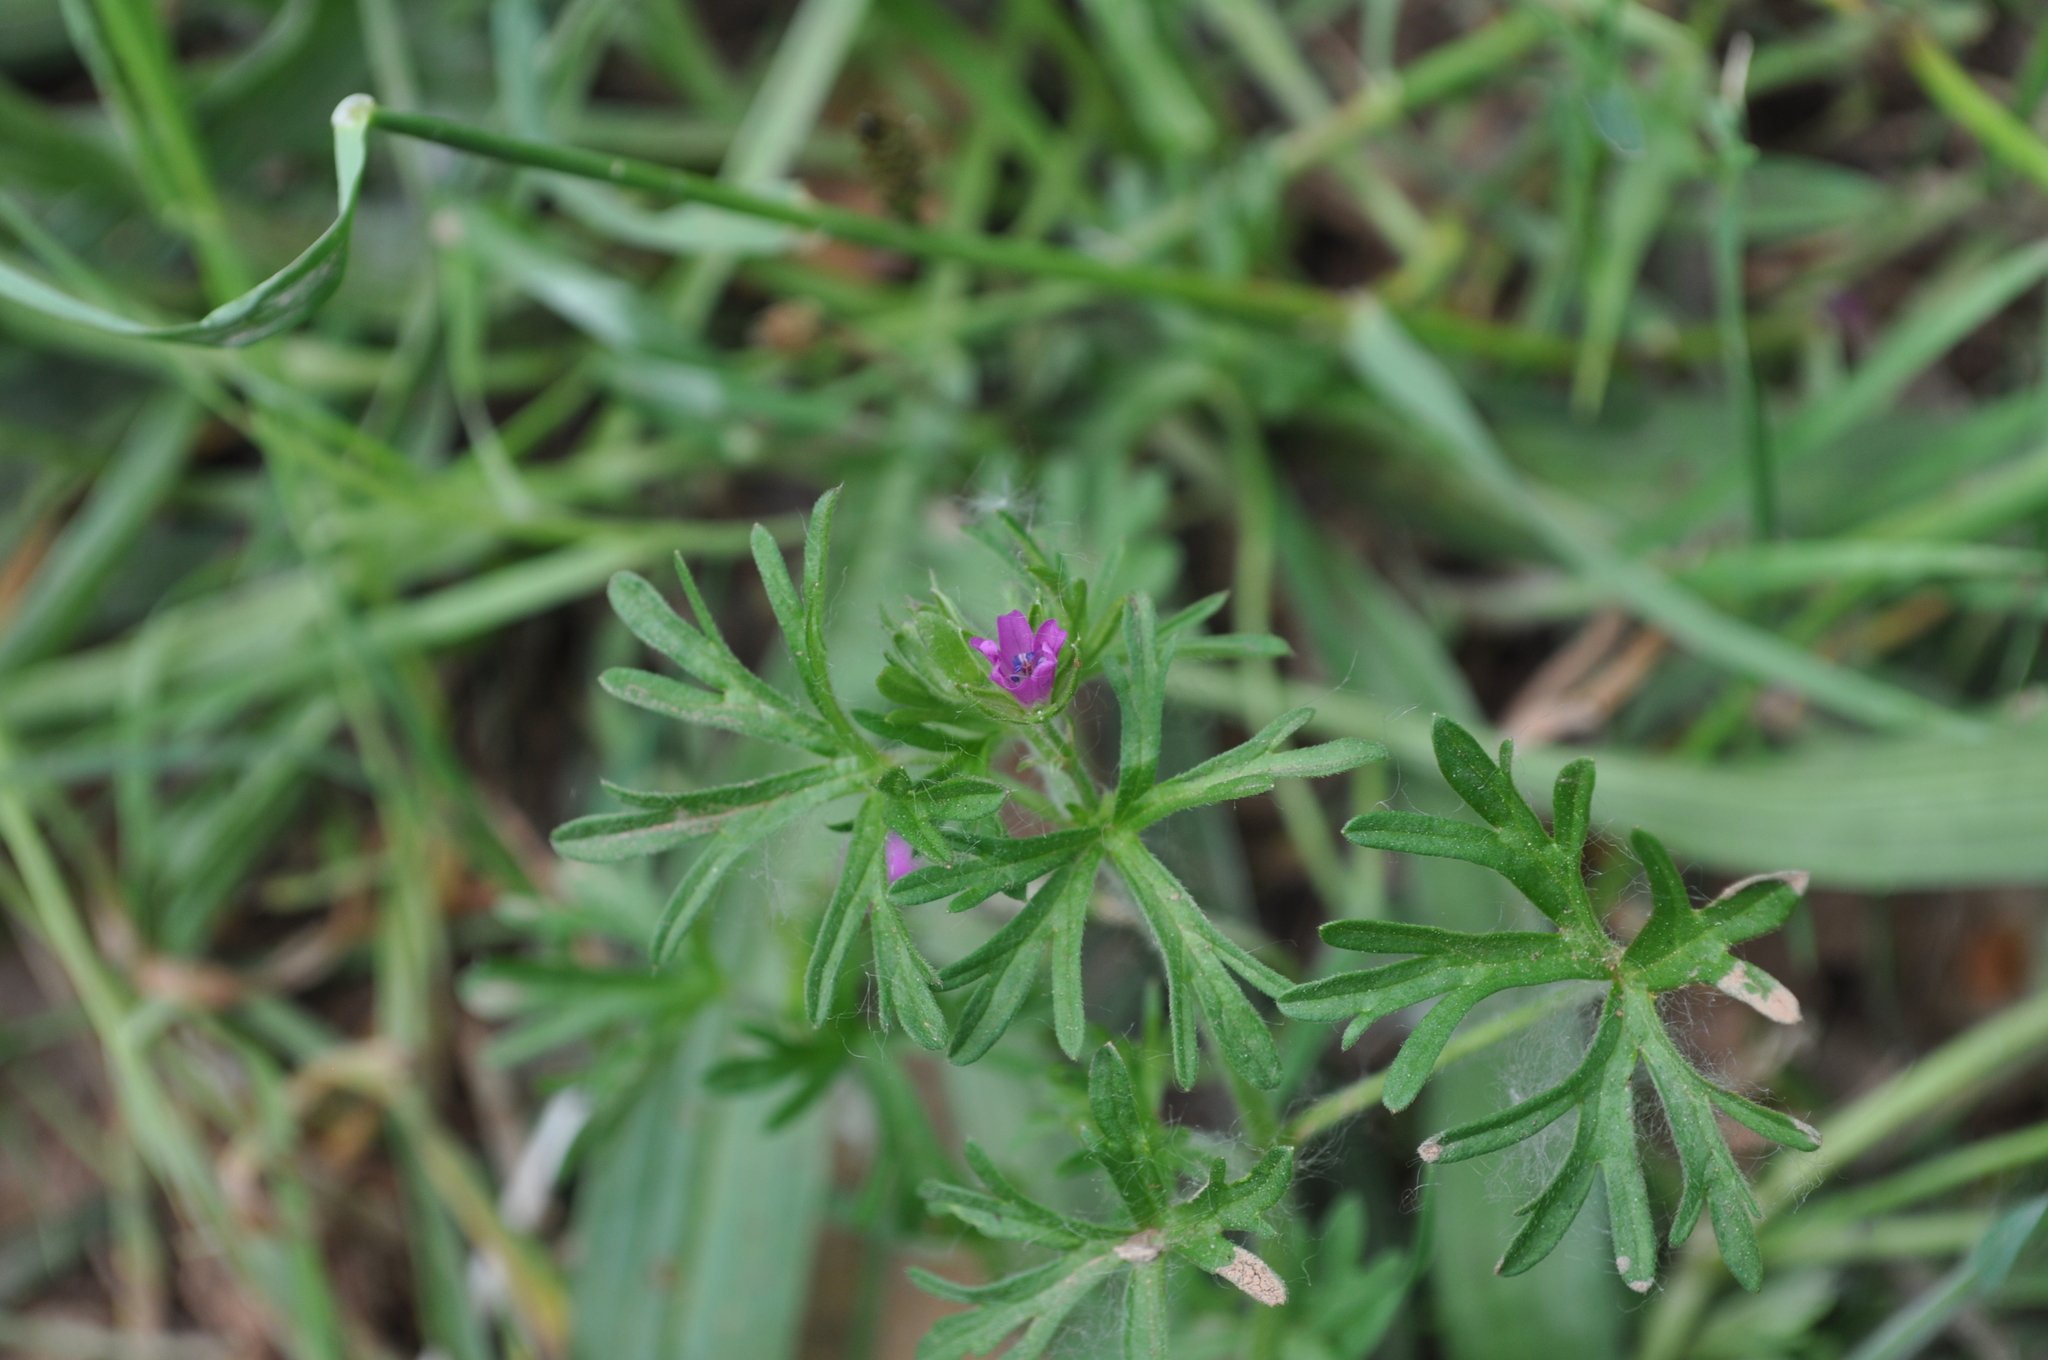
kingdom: Plantae
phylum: Tracheophyta
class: Magnoliopsida
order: Geraniales
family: Geraniaceae
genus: Geranium
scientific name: Geranium dissectum
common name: Cut-leaved crane's-bill
